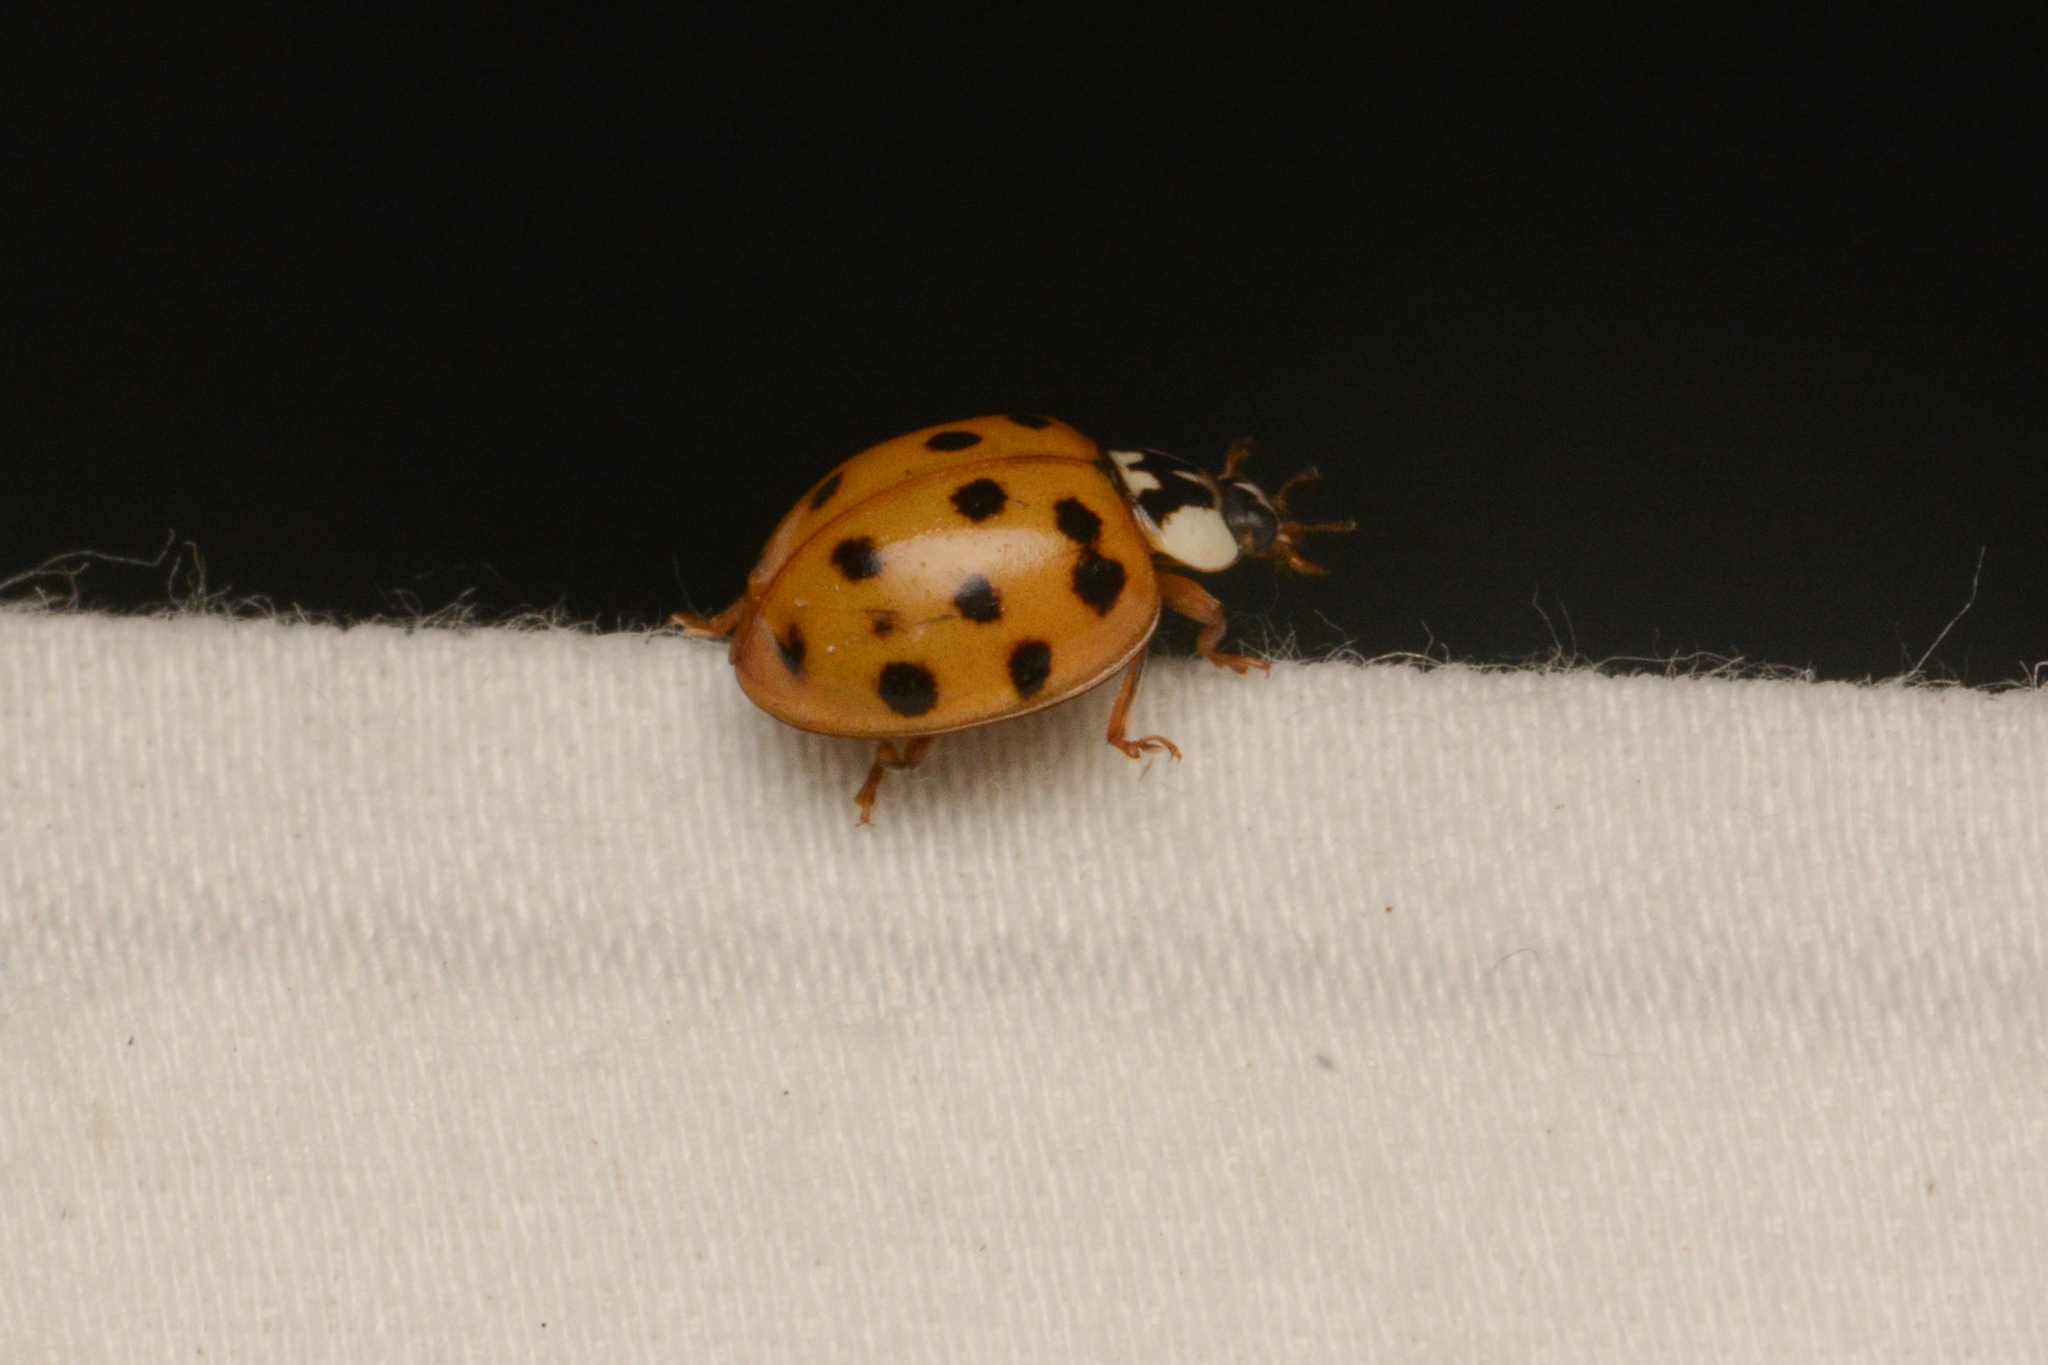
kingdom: Animalia
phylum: Arthropoda
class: Insecta
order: Coleoptera
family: Coccinellidae
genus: Harmonia
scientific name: Harmonia axyridis
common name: Harlequin ladybird
